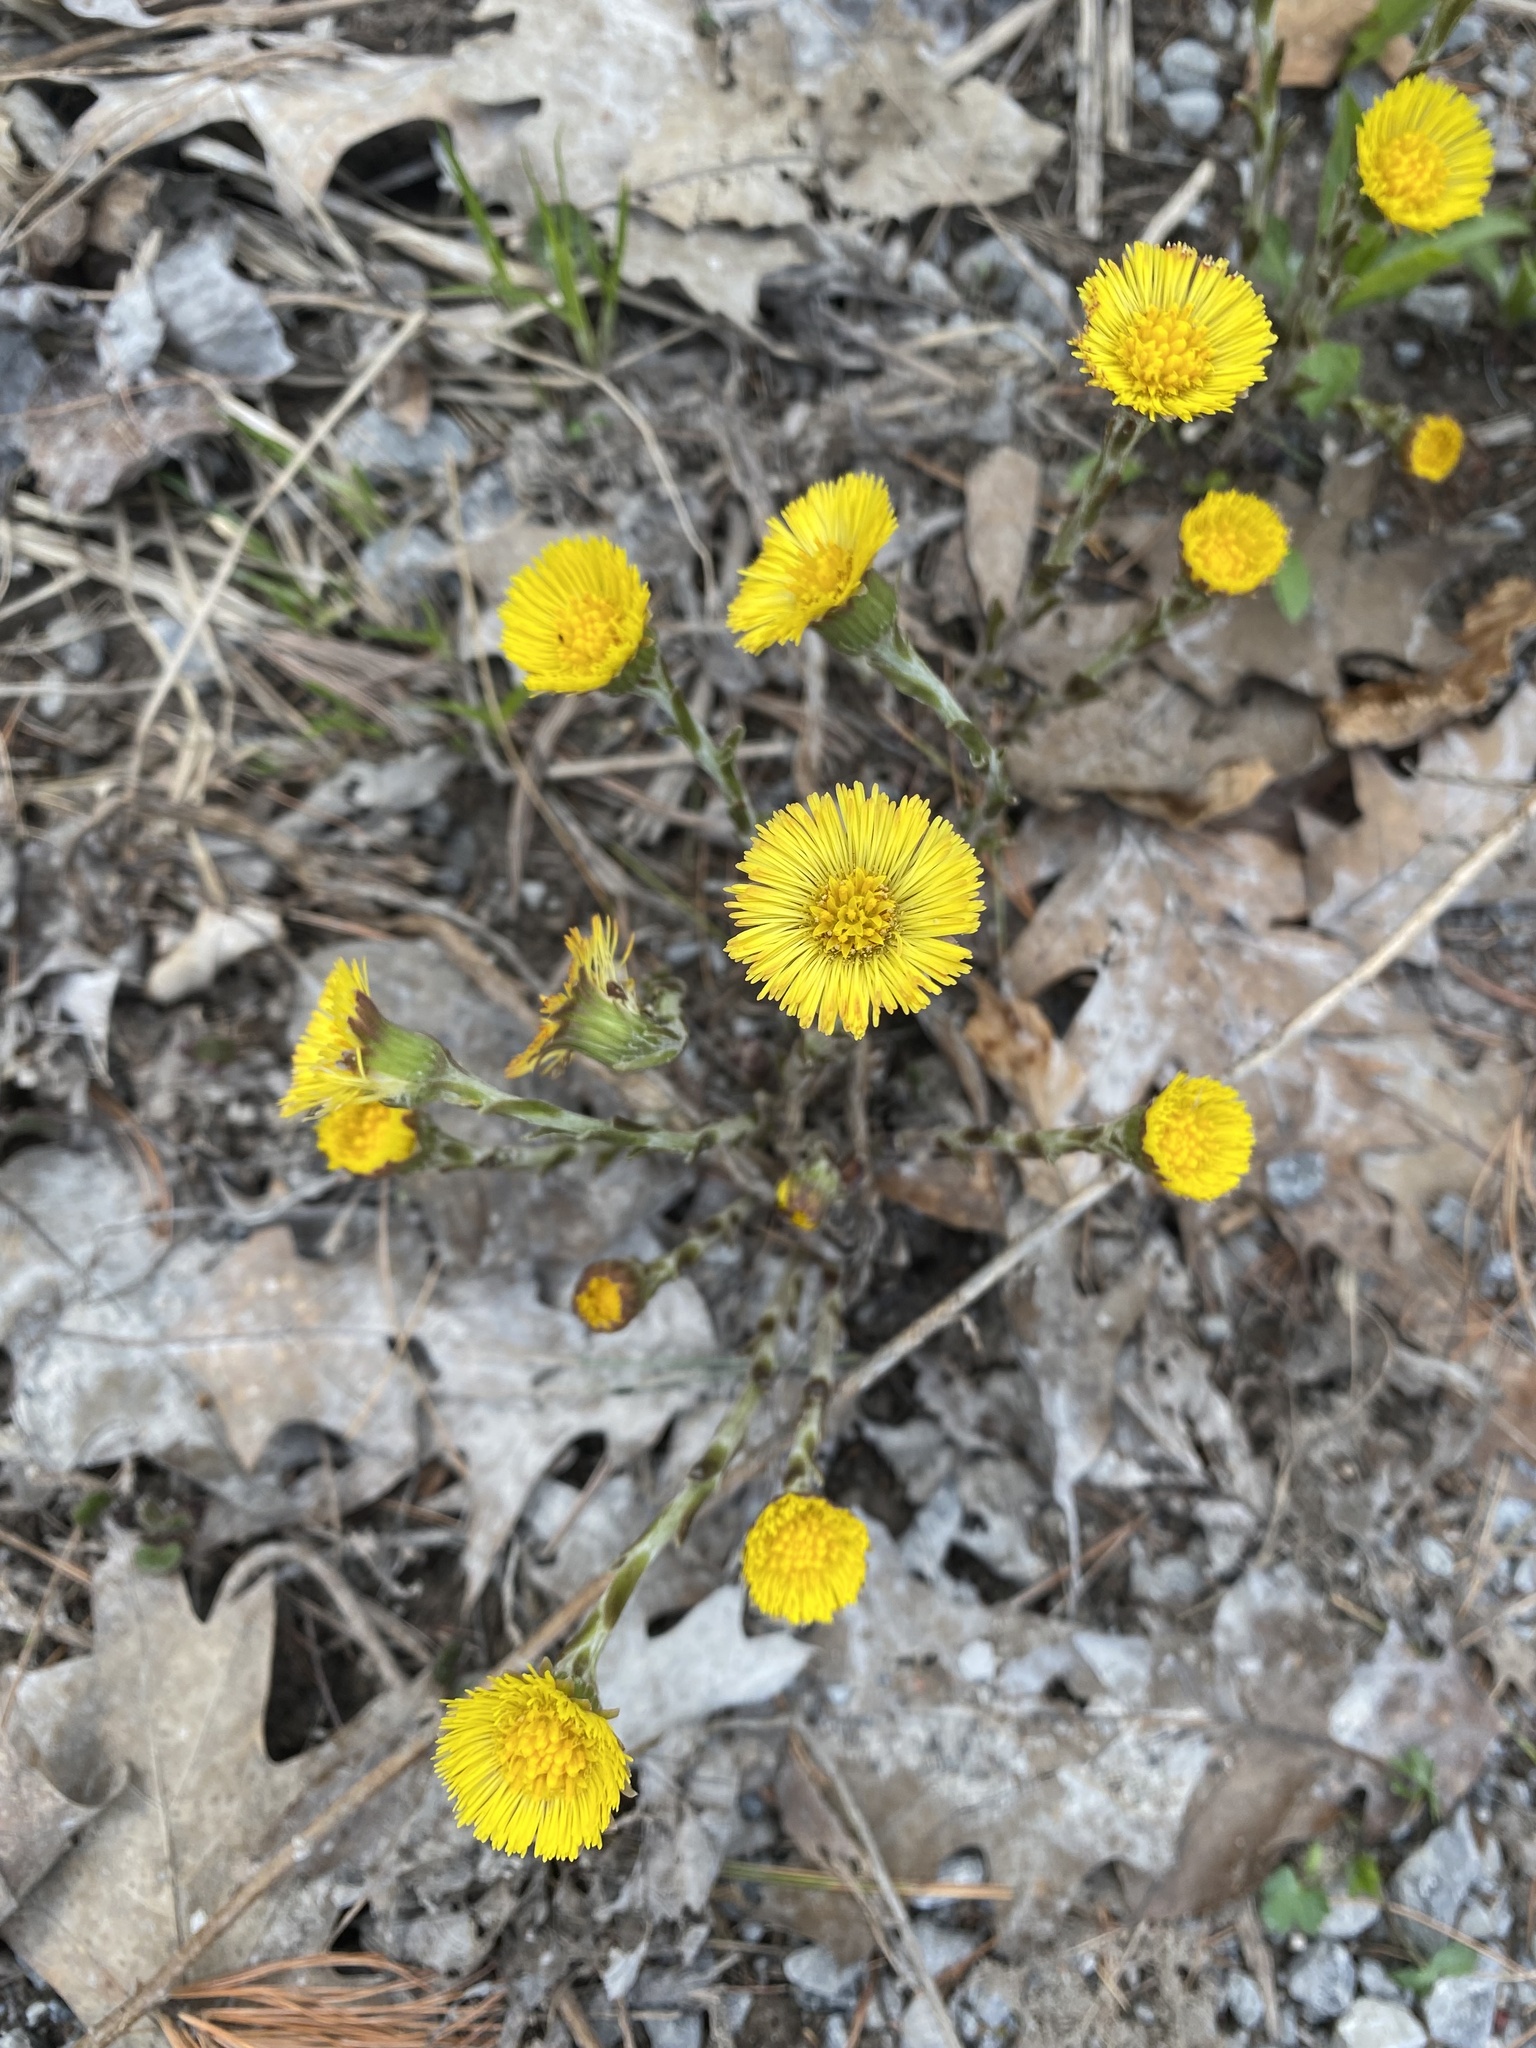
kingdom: Plantae
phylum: Tracheophyta
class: Magnoliopsida
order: Asterales
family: Asteraceae
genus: Tussilago
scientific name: Tussilago farfara
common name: Coltsfoot
